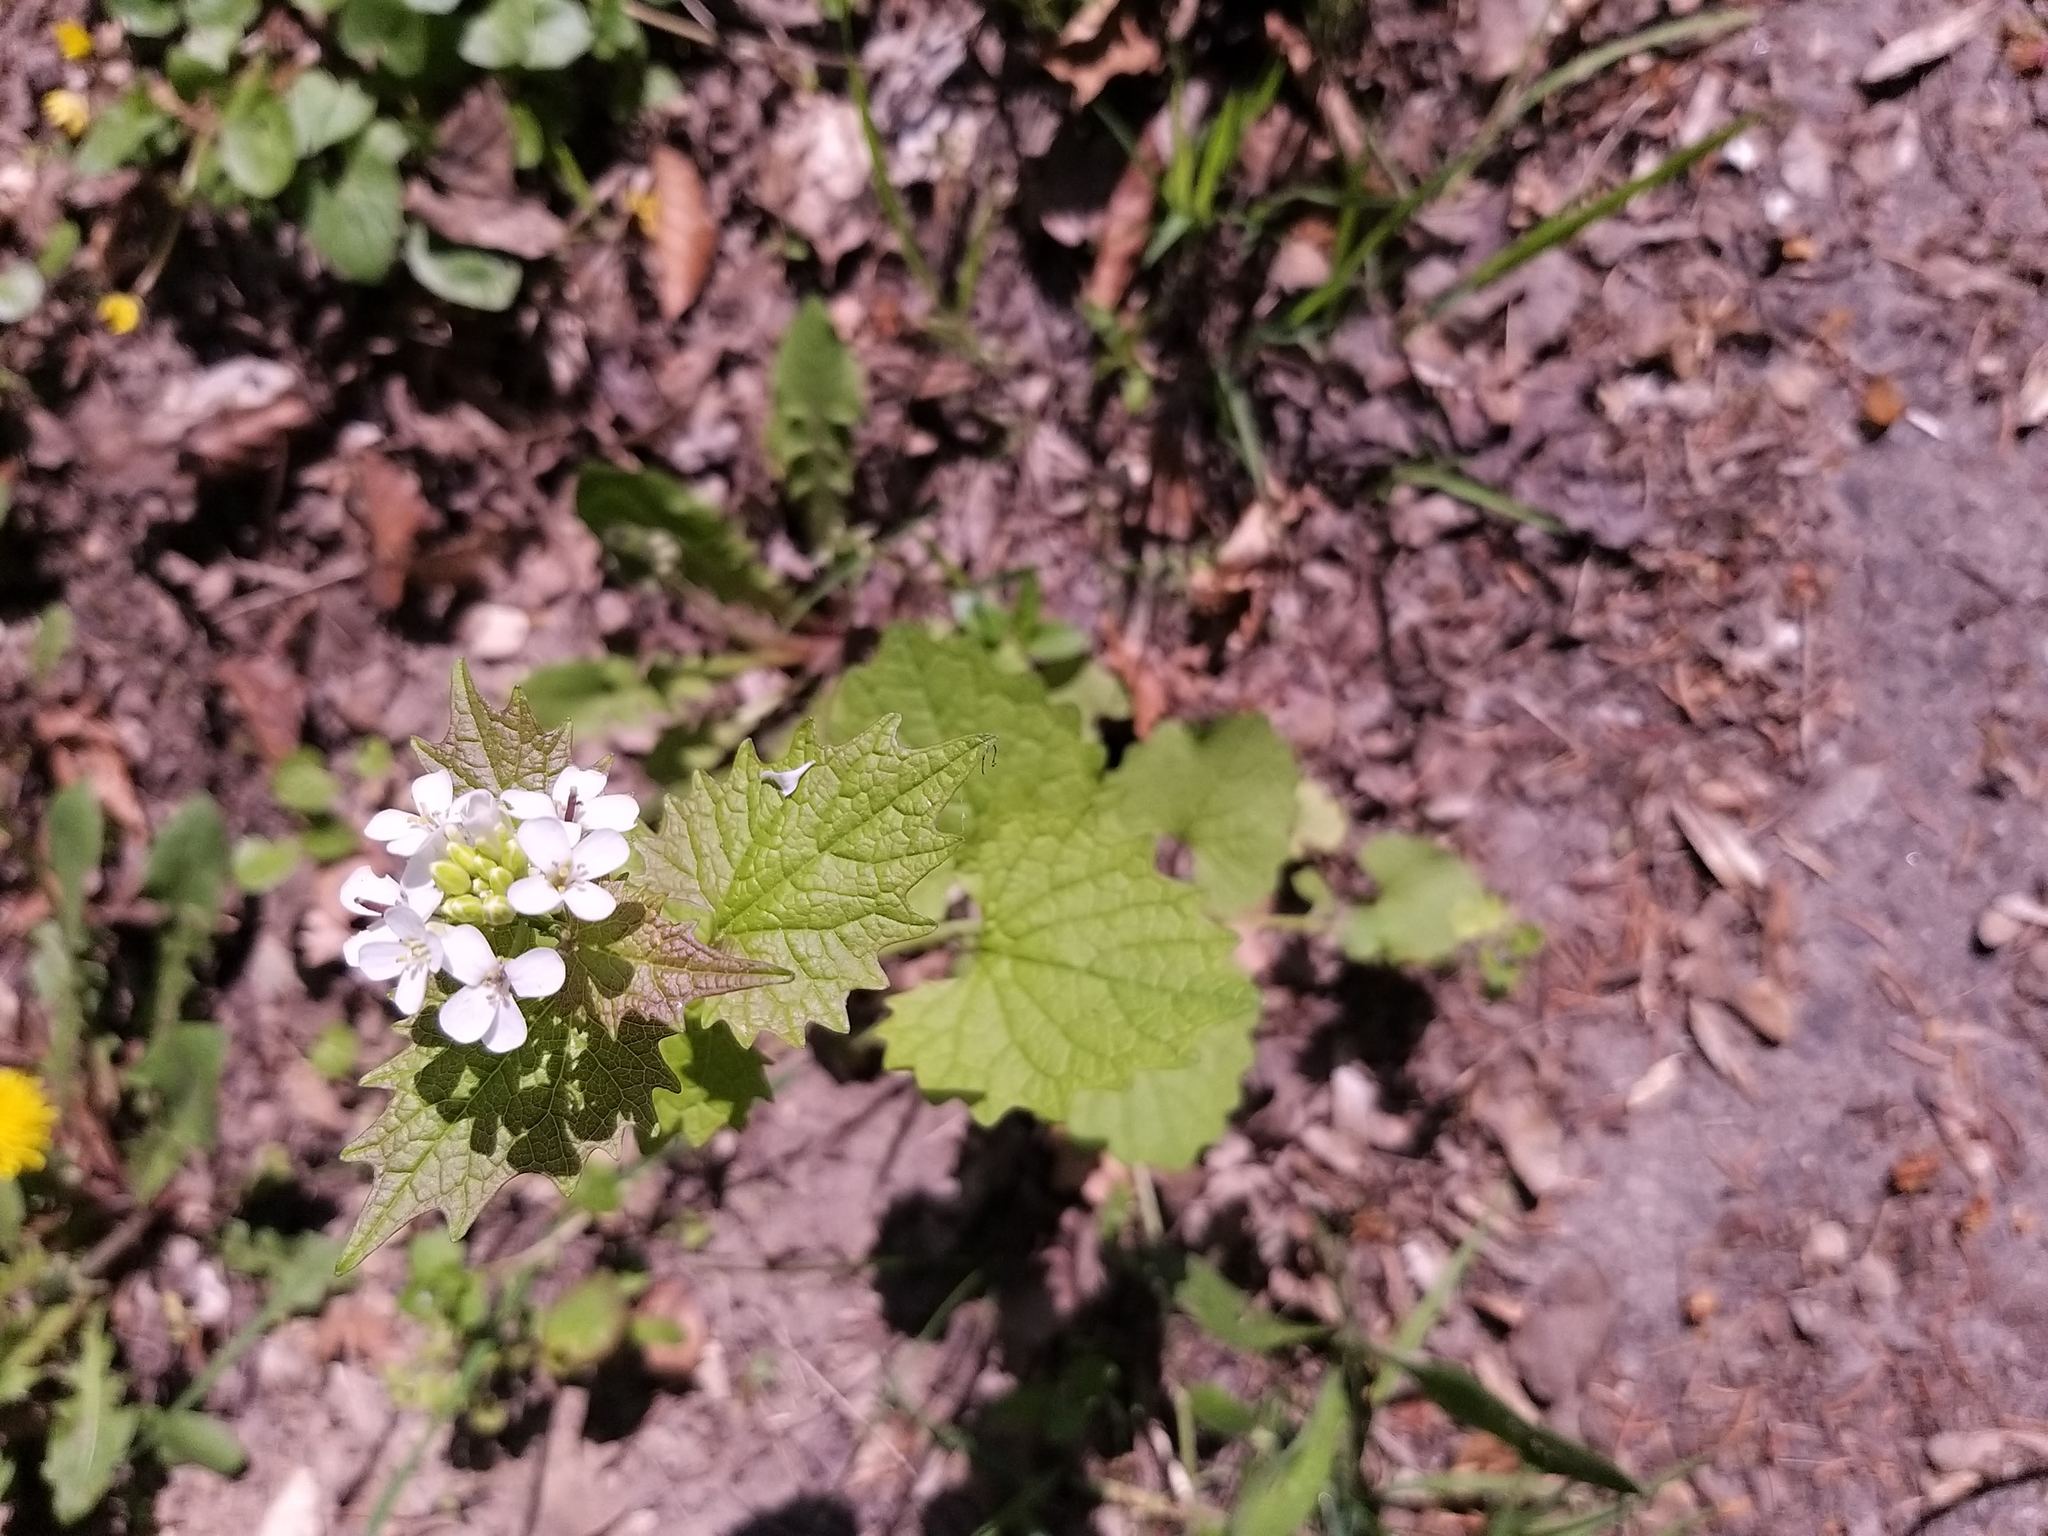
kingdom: Plantae
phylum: Tracheophyta
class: Magnoliopsida
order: Brassicales
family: Brassicaceae
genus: Alliaria
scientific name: Alliaria petiolata
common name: Garlic mustard
